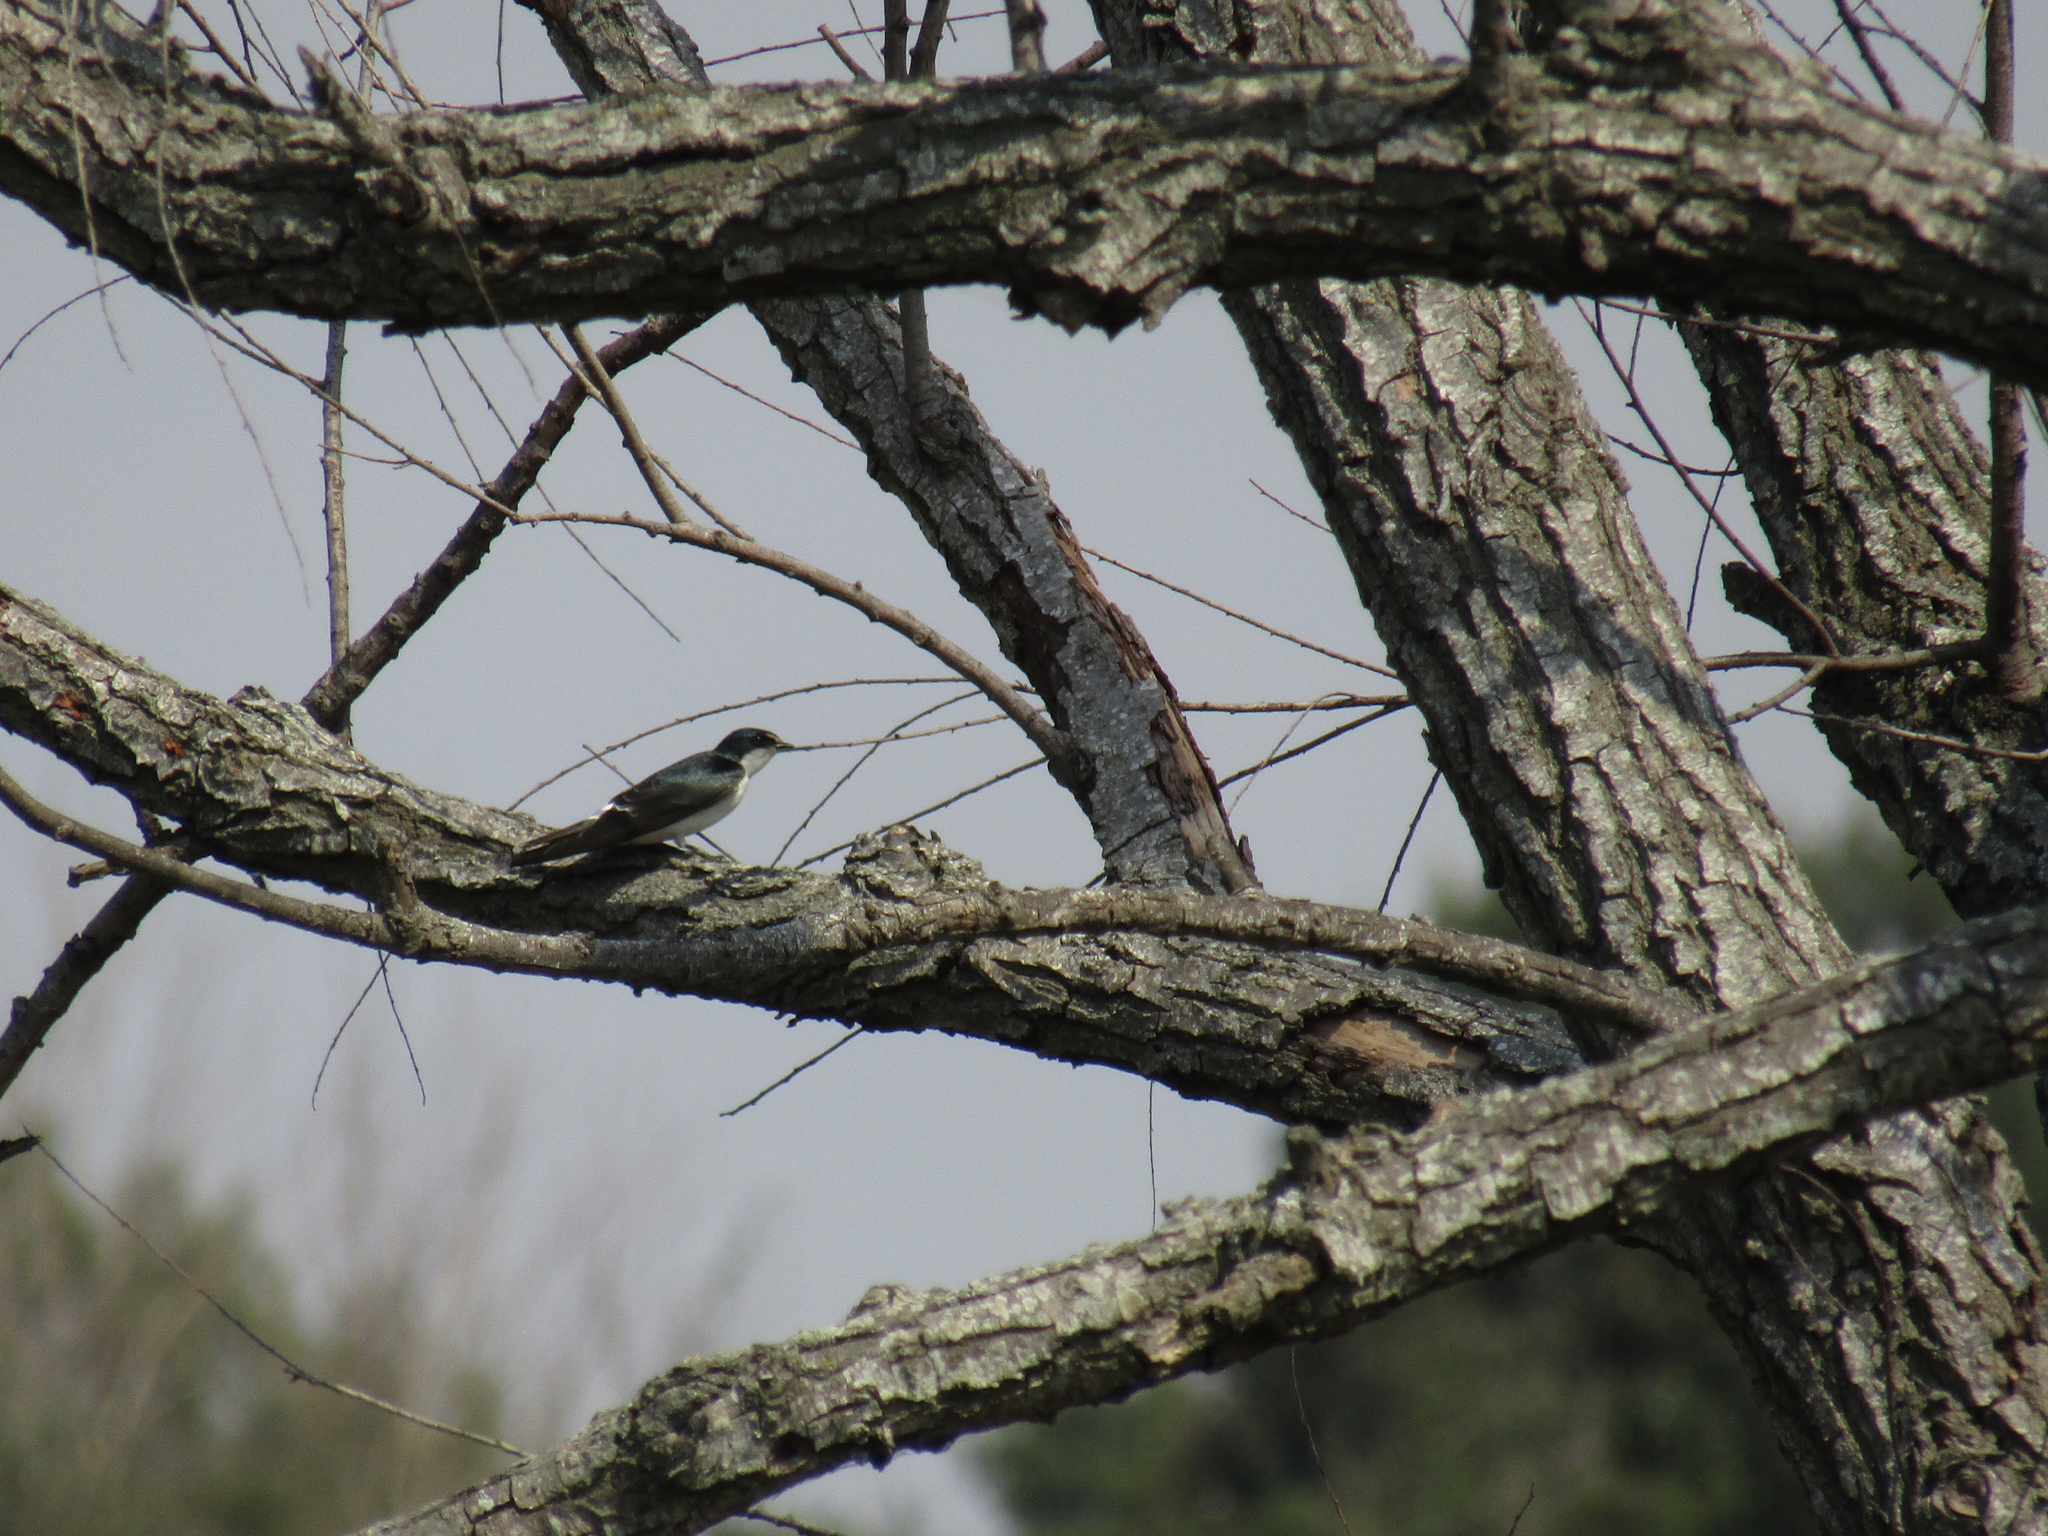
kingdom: Animalia
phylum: Chordata
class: Aves
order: Passeriformes
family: Hirundinidae
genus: Tachycineta
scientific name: Tachycineta leucorrhoa
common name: White-rumped swallow
